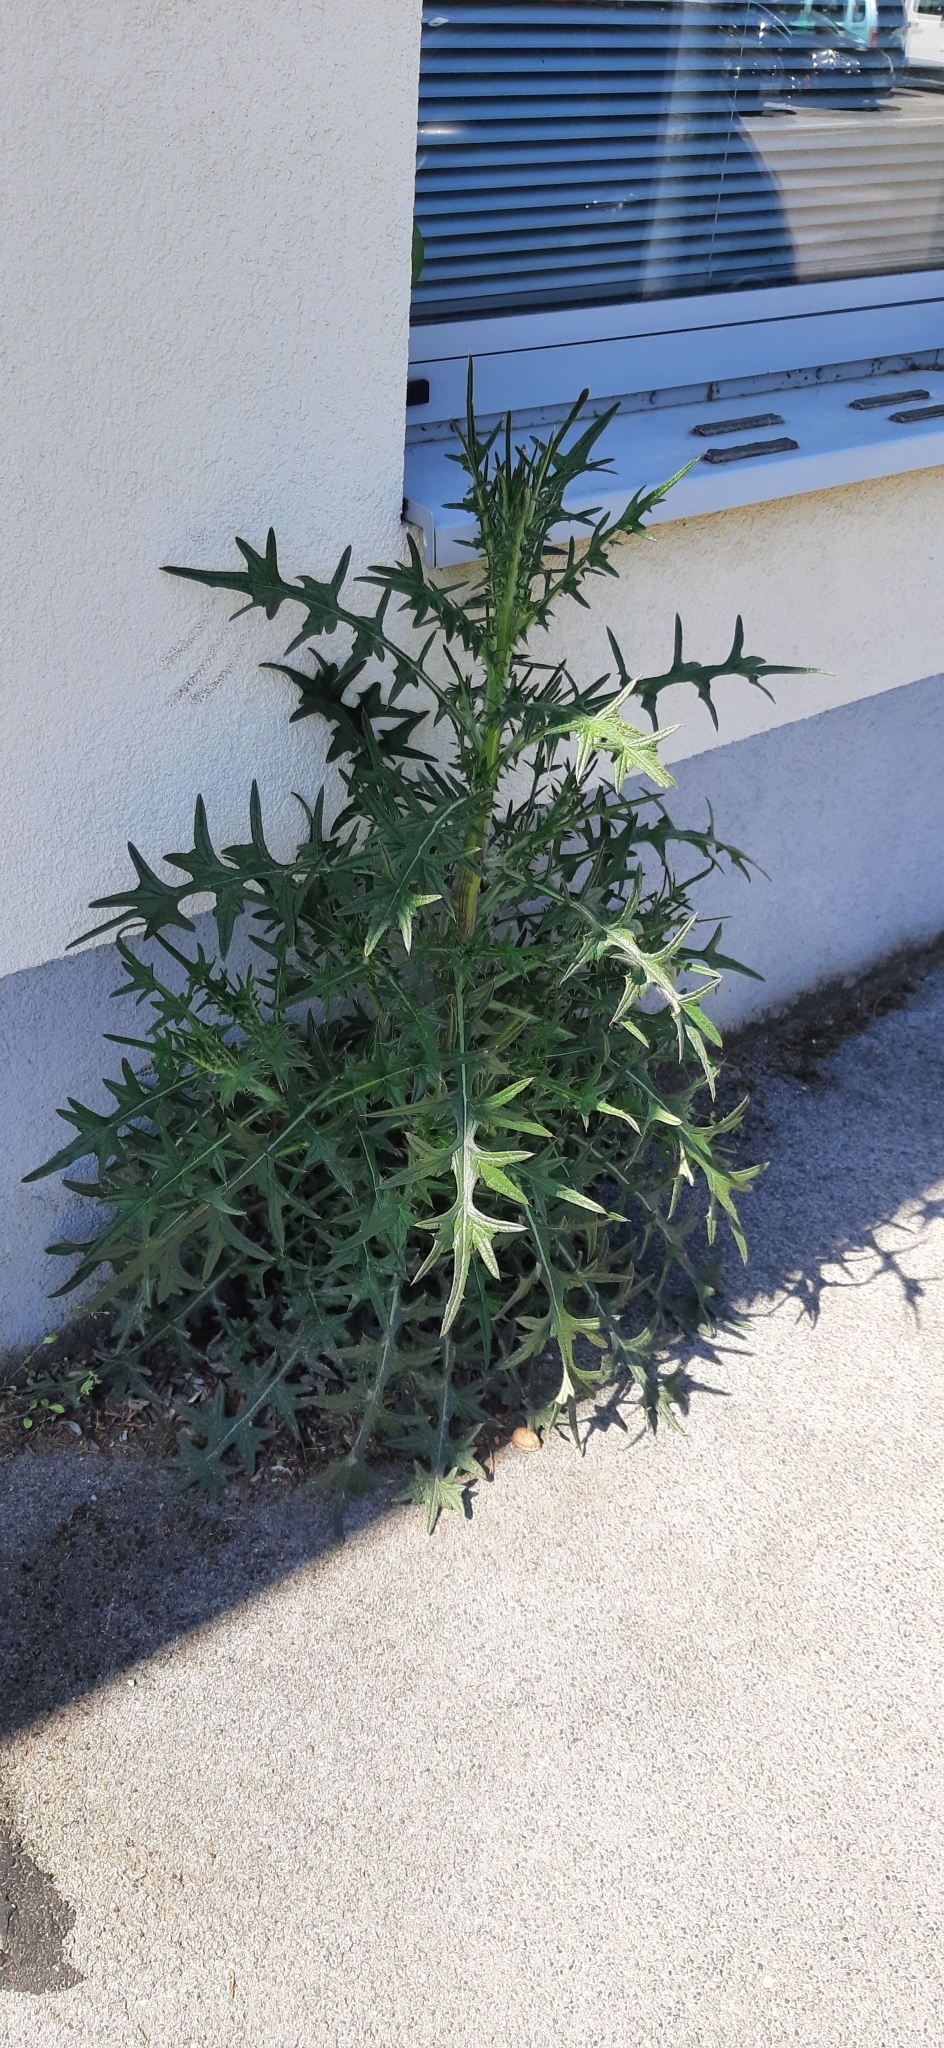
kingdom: Plantae
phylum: Tracheophyta
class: Magnoliopsida
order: Asterales
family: Asteraceae
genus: Cirsium
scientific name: Cirsium vulgare
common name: Bull thistle
